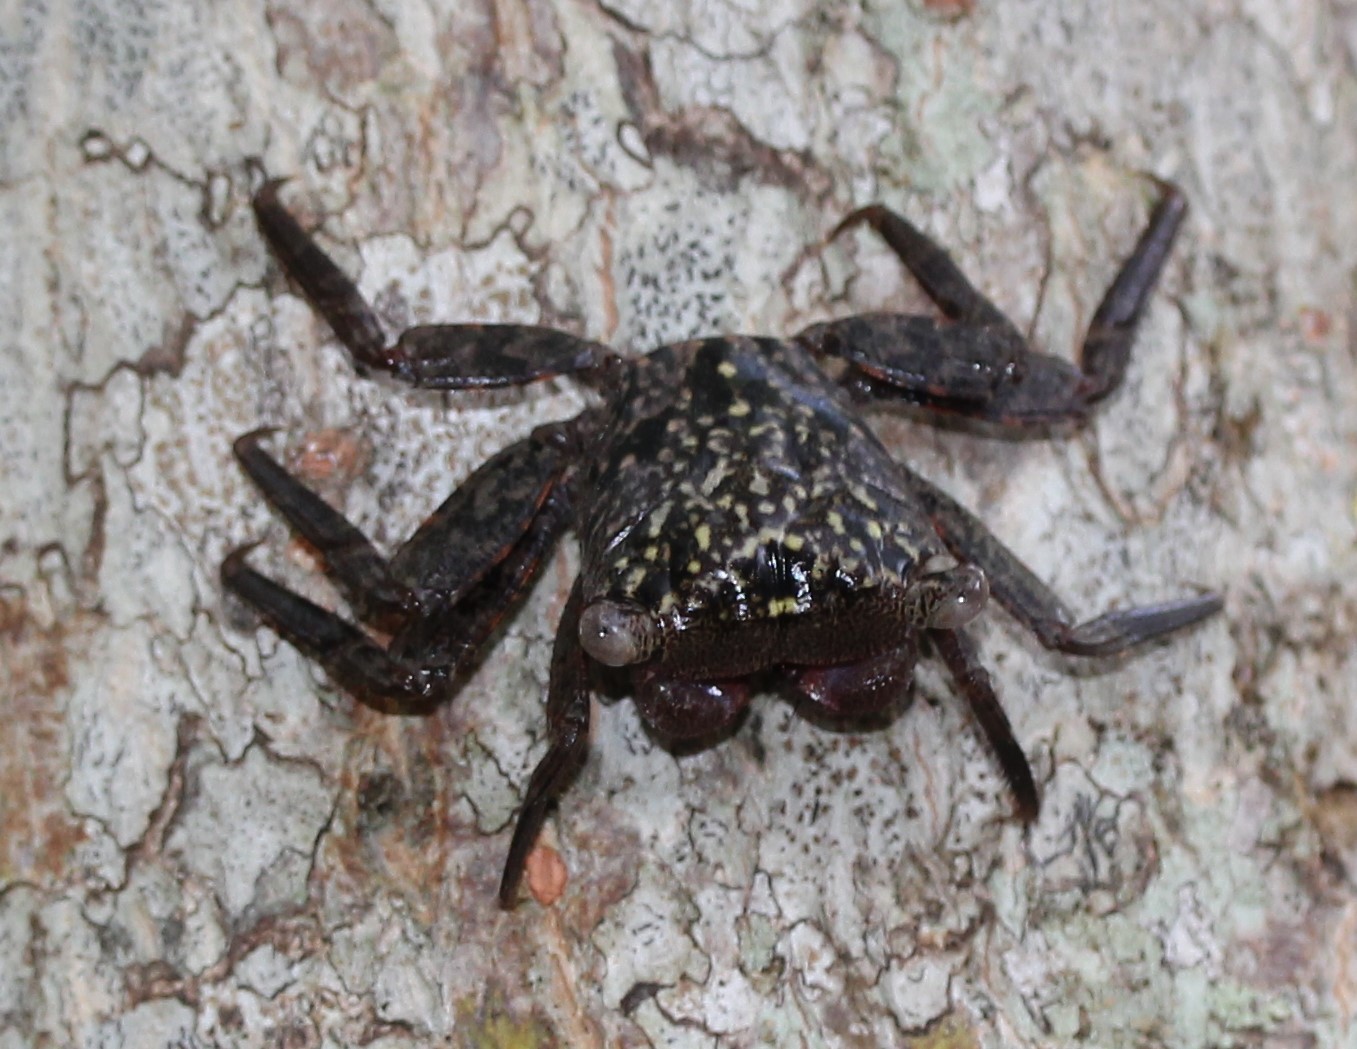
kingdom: Animalia
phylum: Arthropoda
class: Malacostraca
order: Decapoda
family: Sesarmidae
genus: Aratus
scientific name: Aratus pisonii
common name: Mangrove crab
